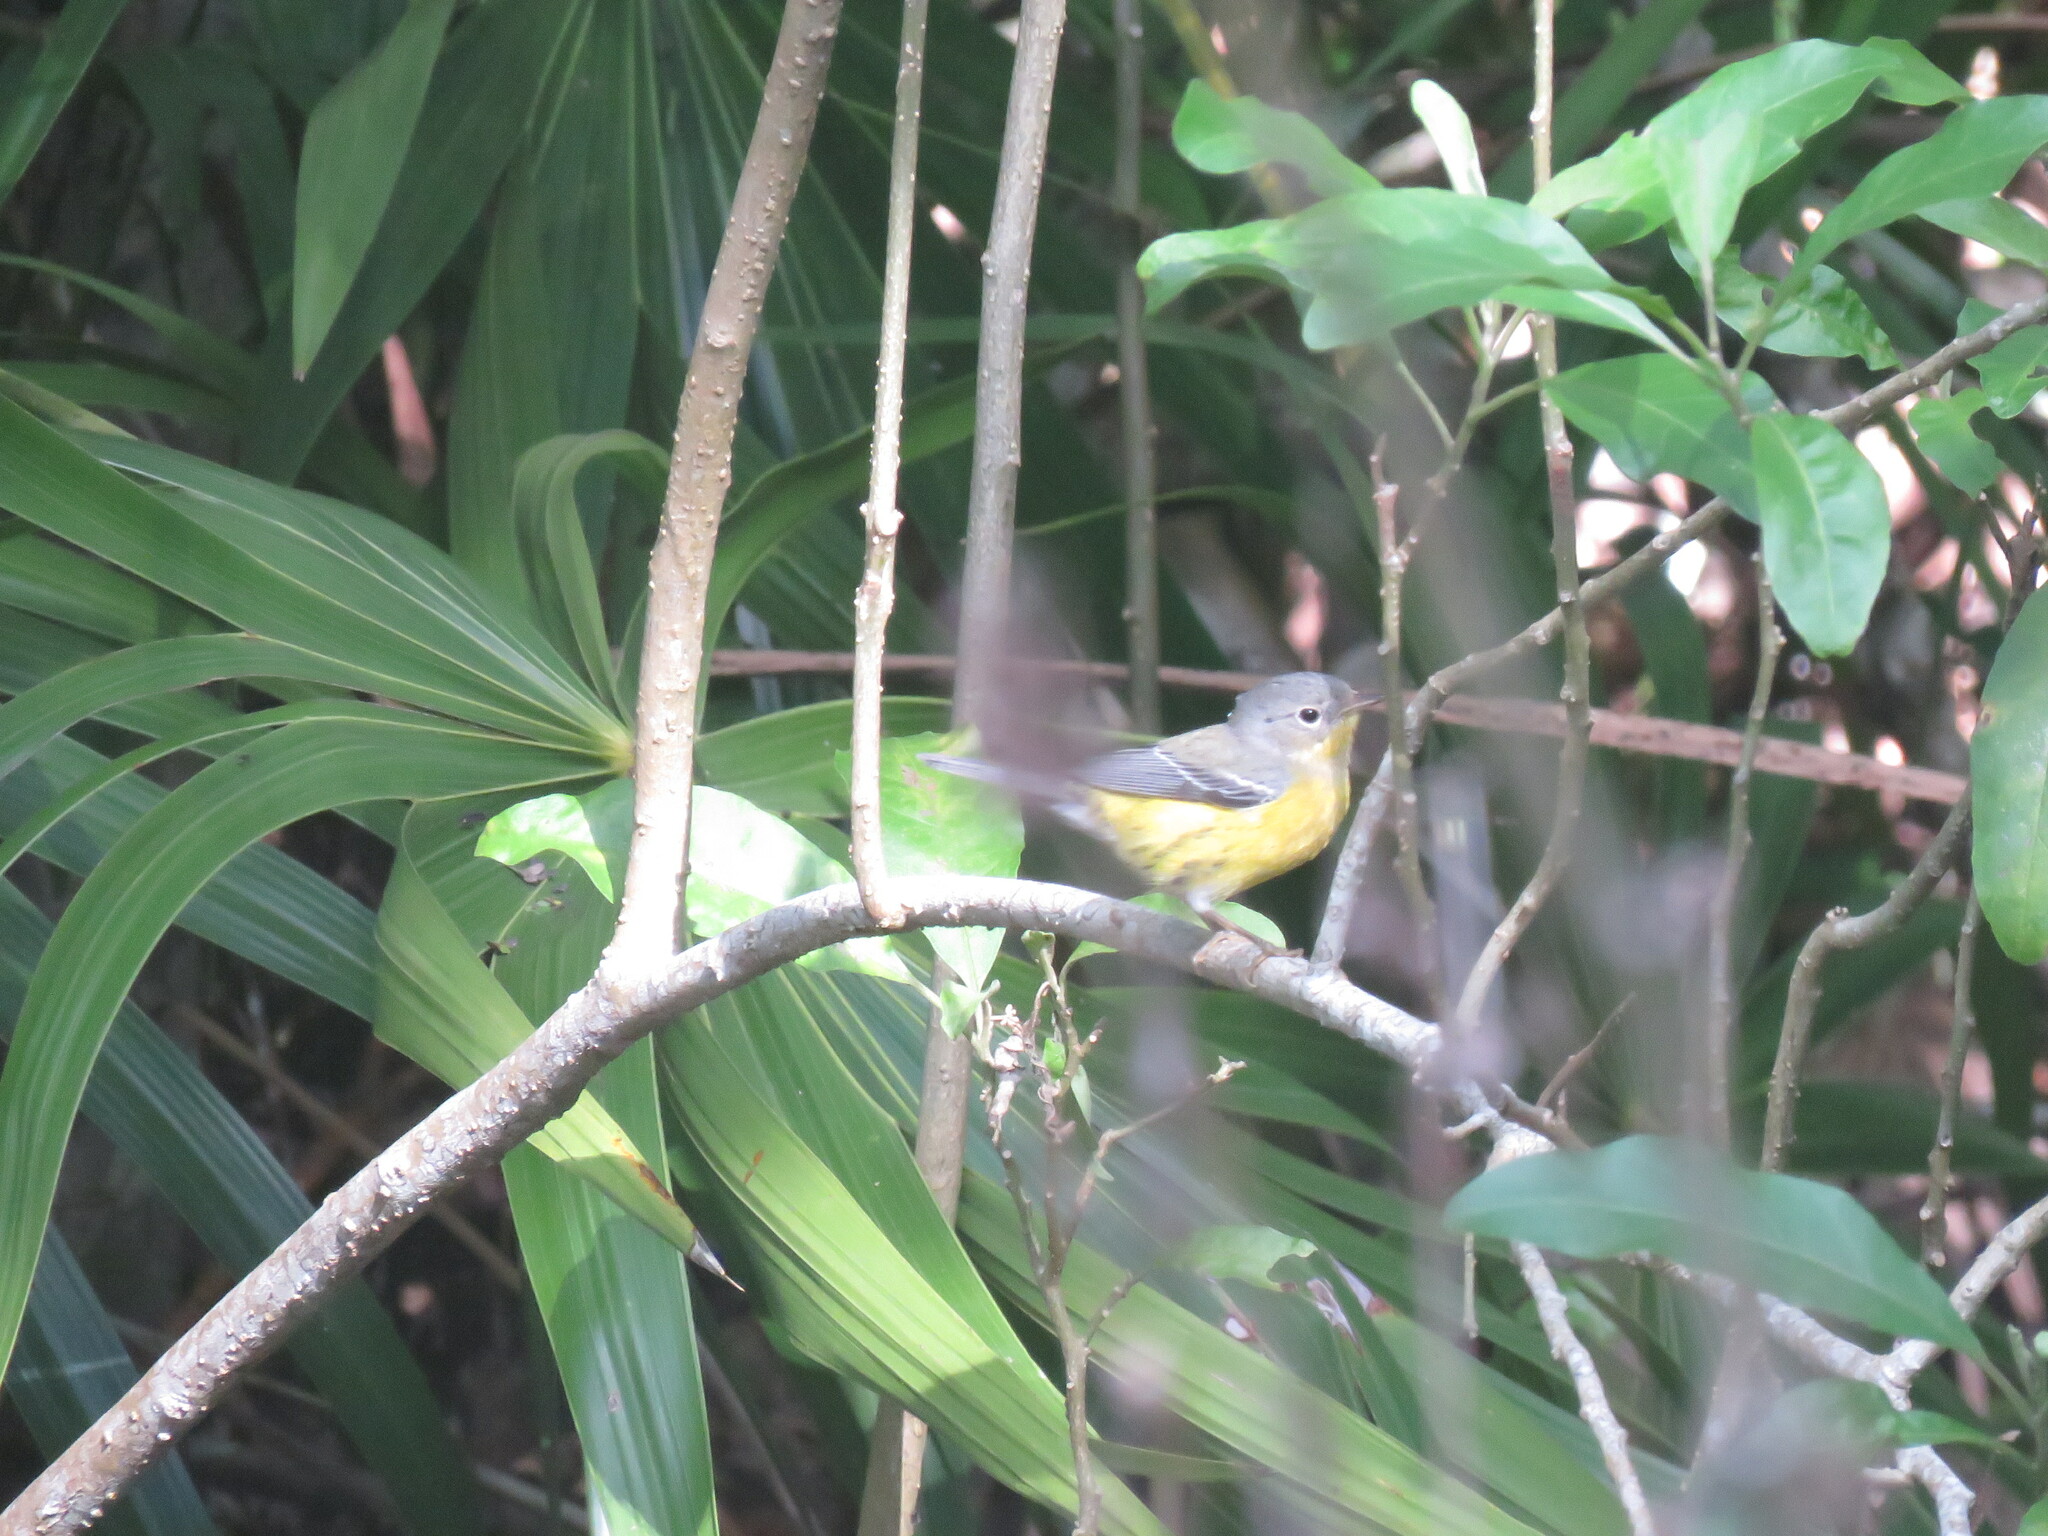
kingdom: Animalia
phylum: Chordata
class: Aves
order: Passeriformes
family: Parulidae
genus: Setophaga
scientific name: Setophaga magnolia
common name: Magnolia warbler
